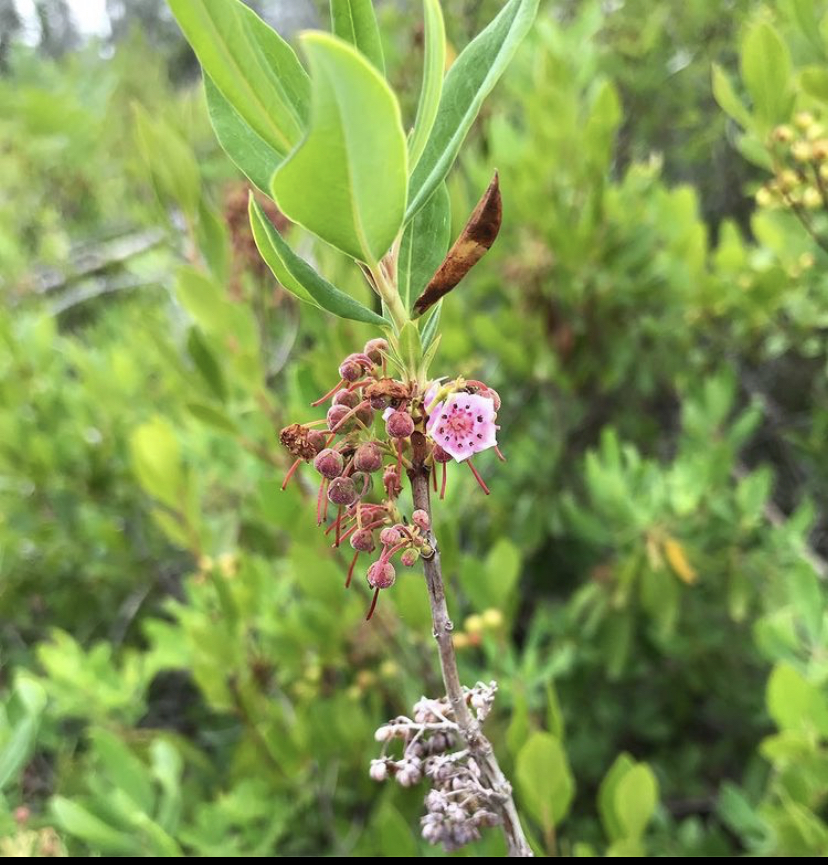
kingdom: Plantae
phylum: Tracheophyta
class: Magnoliopsida
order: Ericales
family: Ericaceae
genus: Kalmia
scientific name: Kalmia angustifolia
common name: Sheep-laurel
